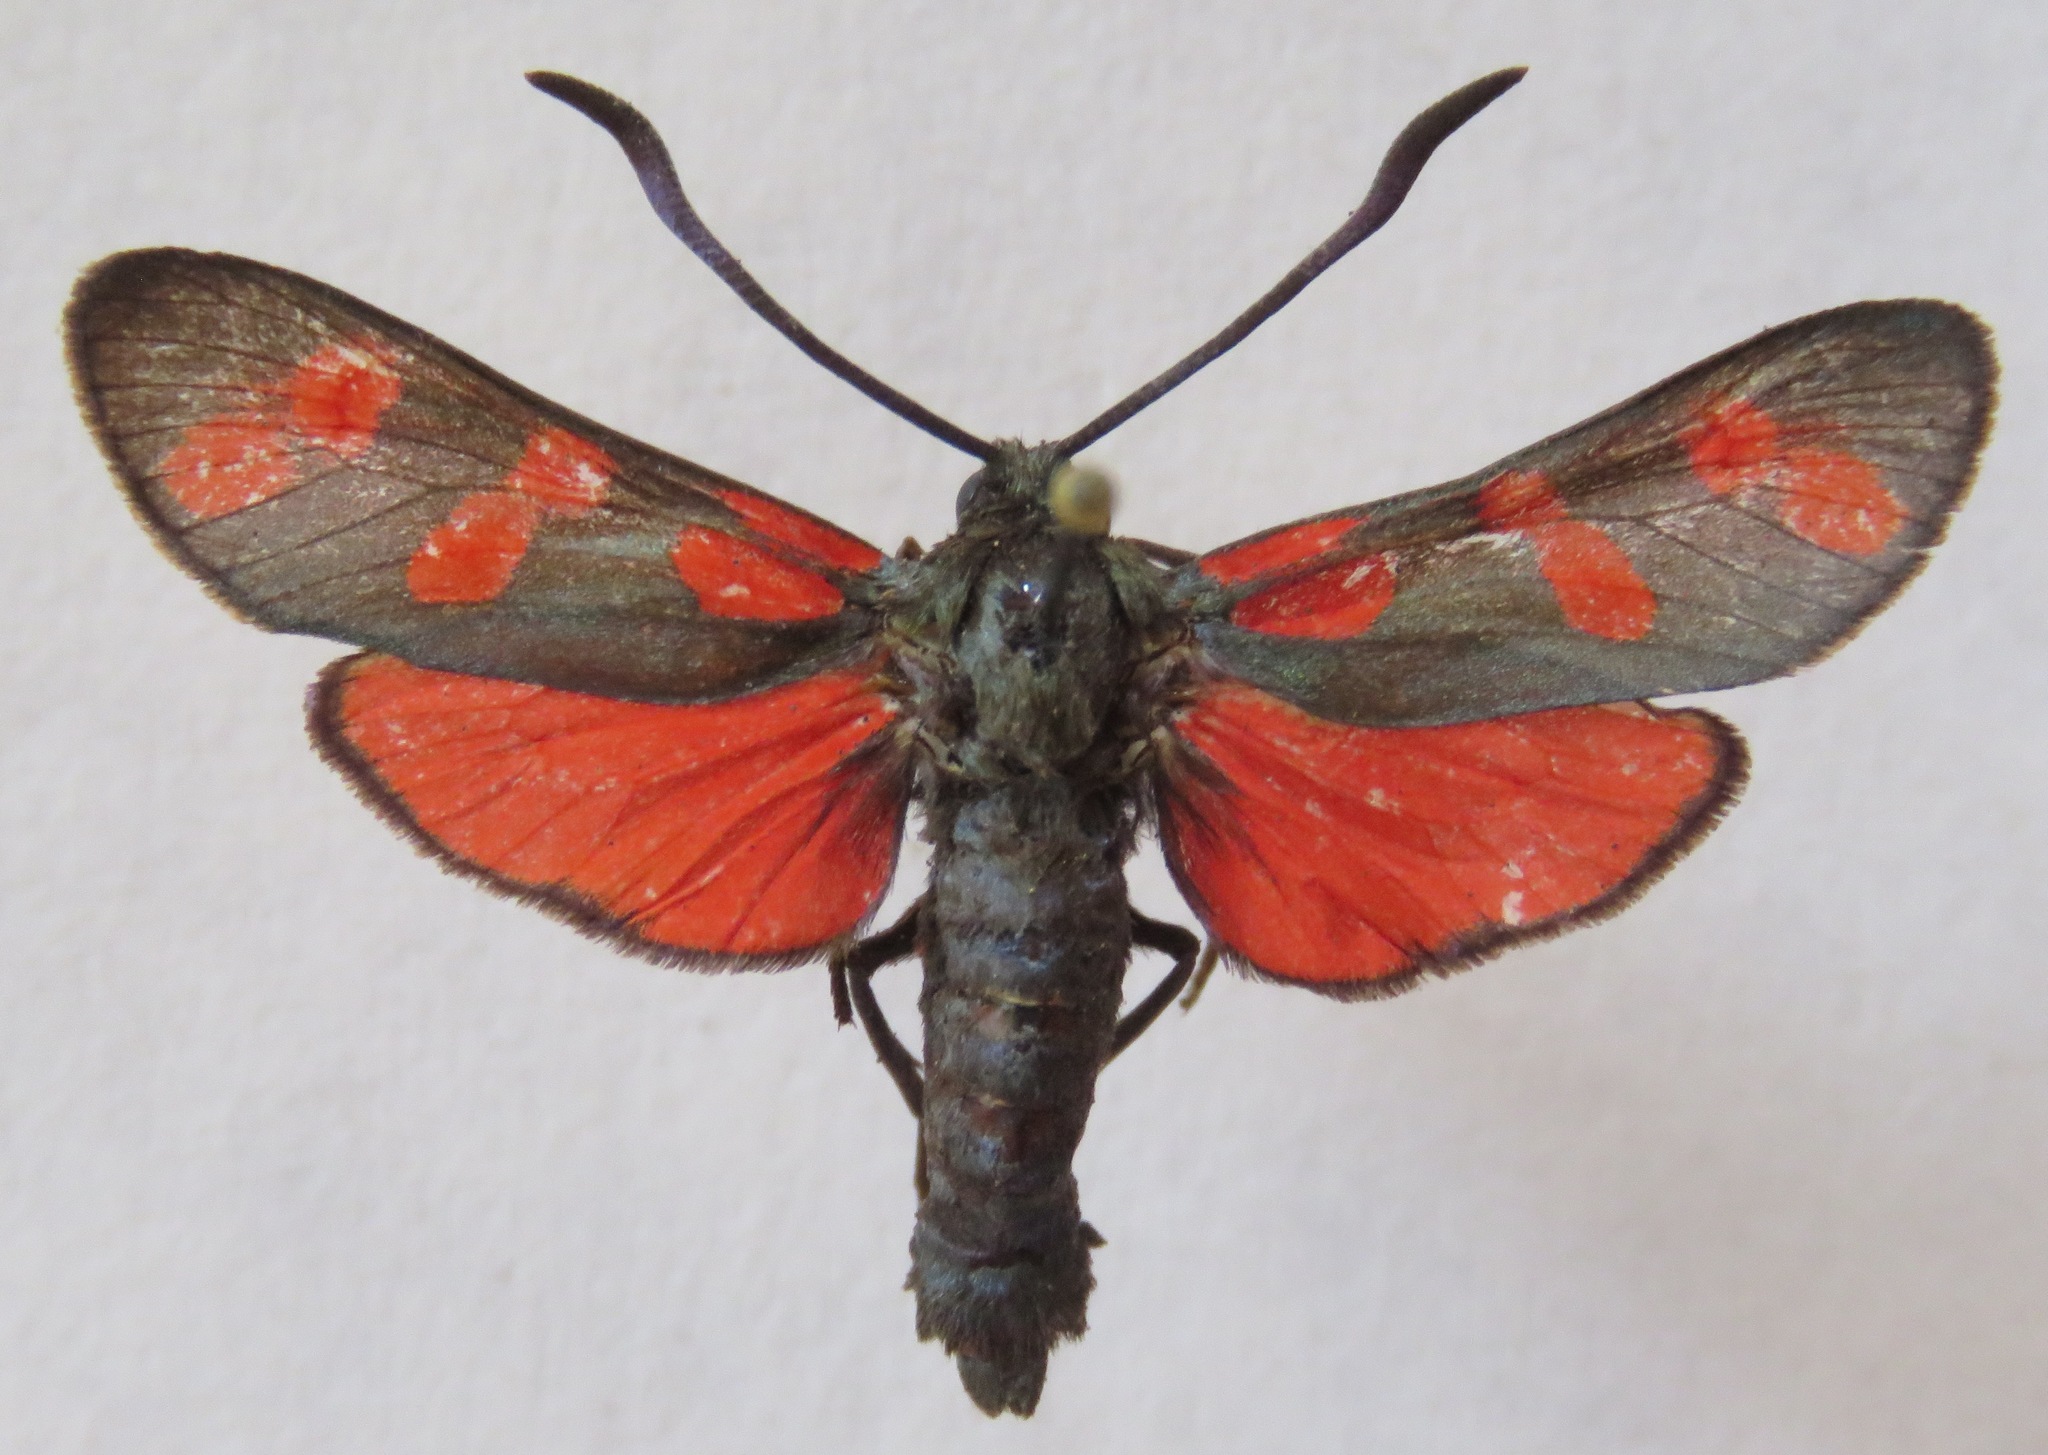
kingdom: Animalia
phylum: Arthropoda
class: Insecta
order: Lepidoptera
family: Zygaenidae
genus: Zygaena
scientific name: Zygaena filipendulae
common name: Six-spot burnet
